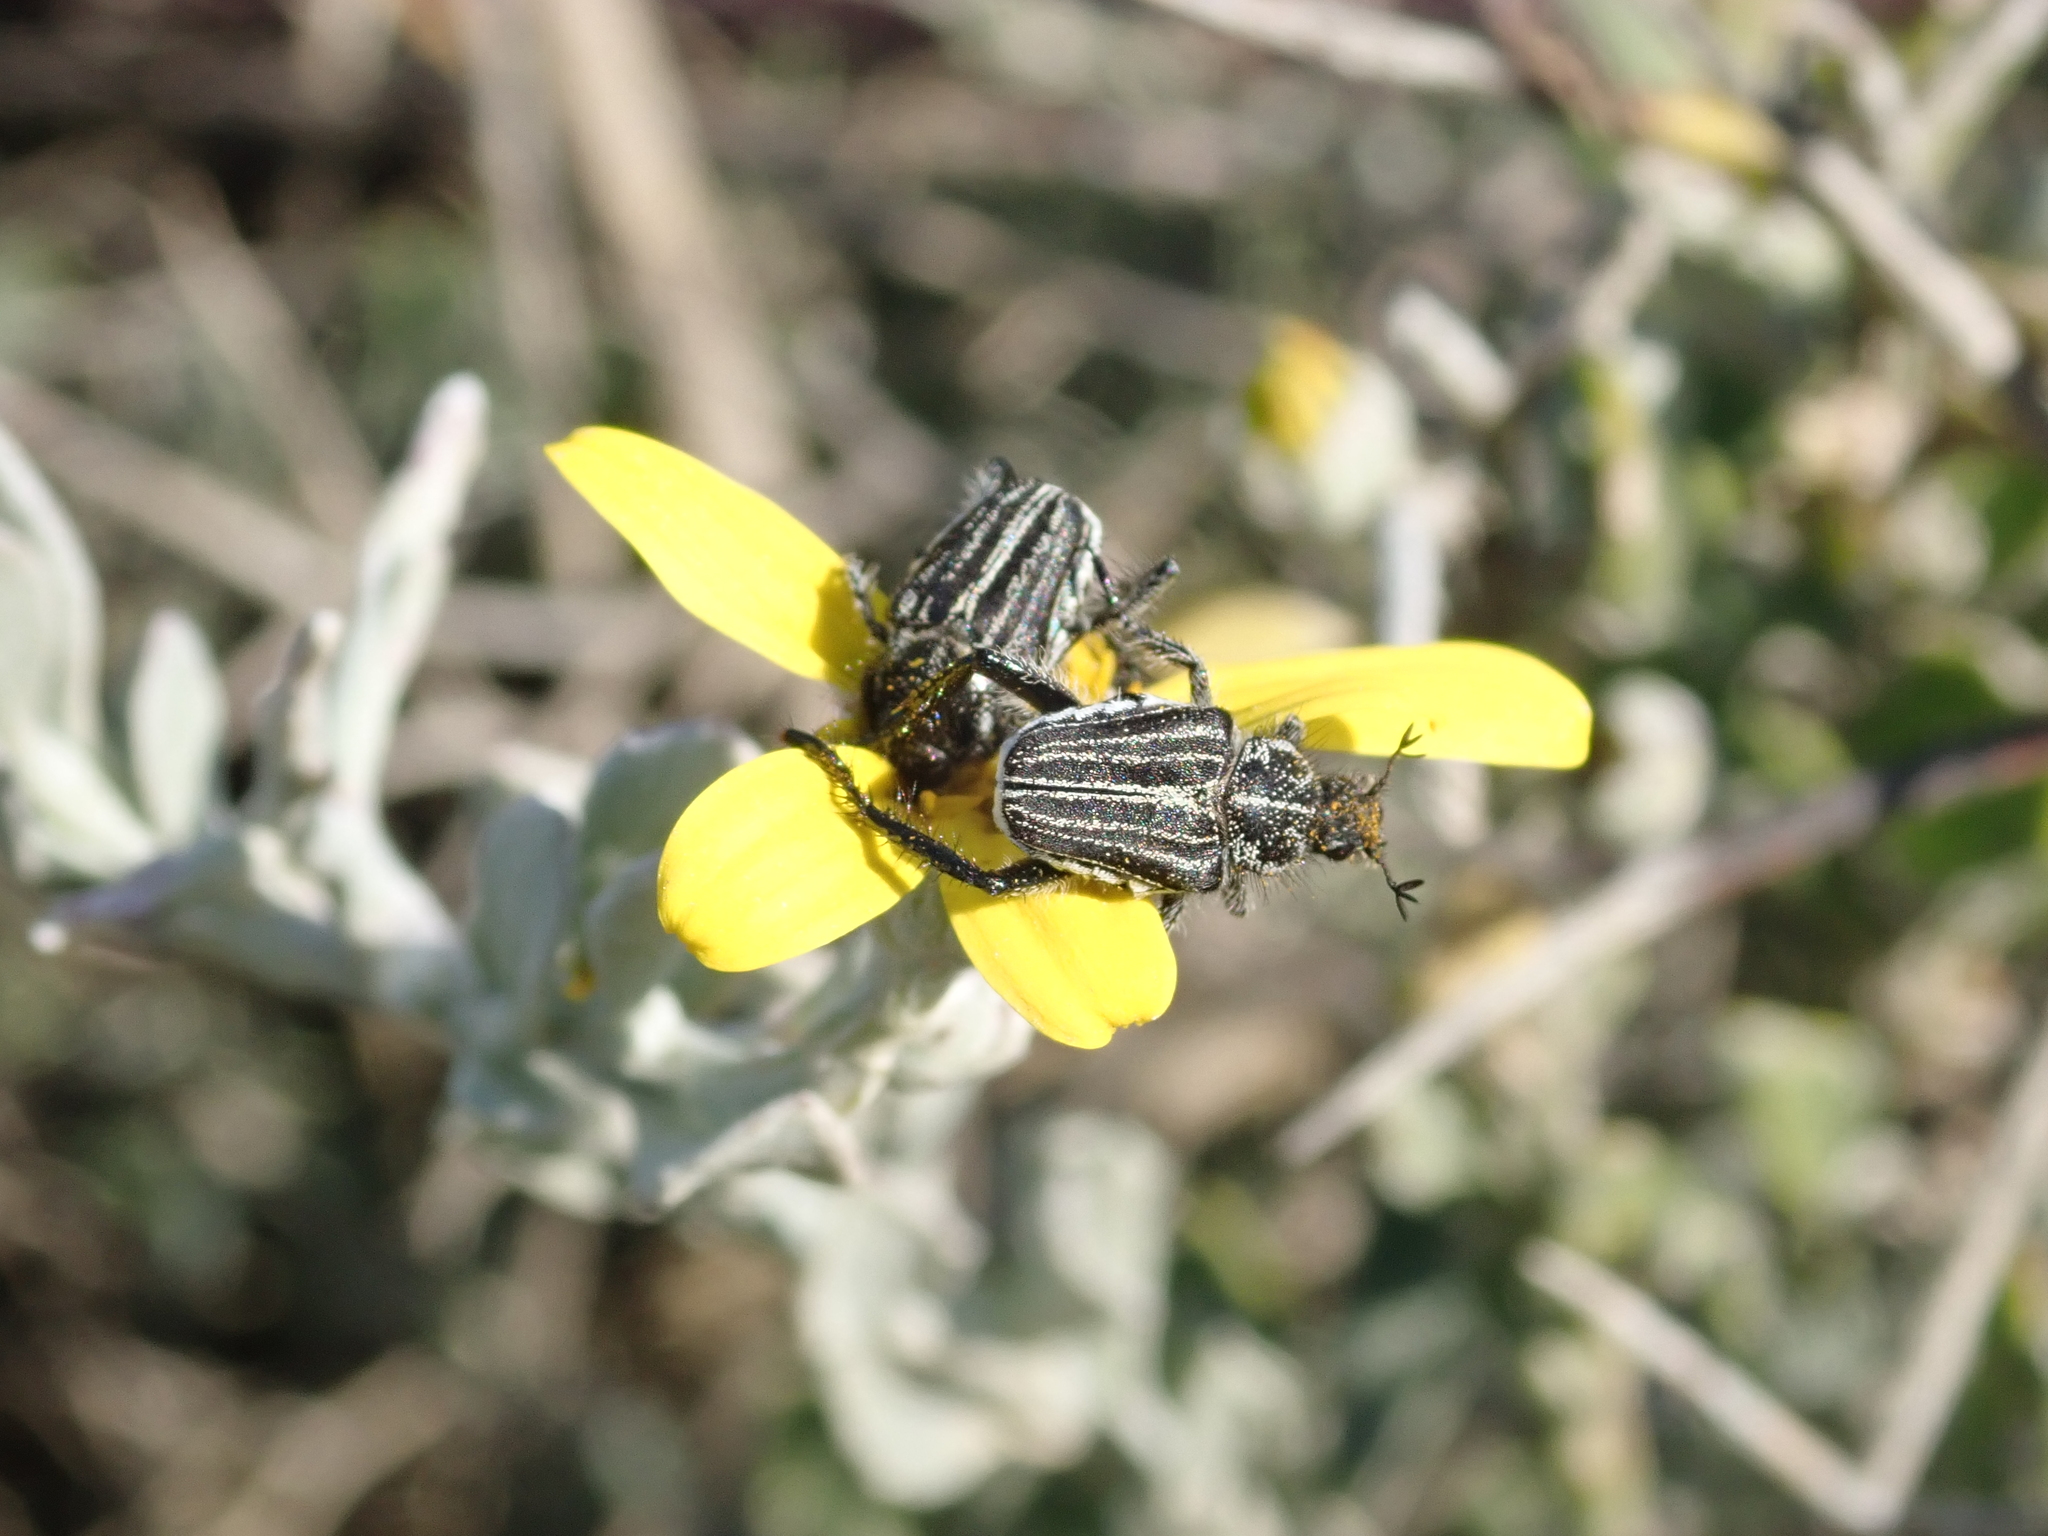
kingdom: Plantae
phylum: Tracheophyta
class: Magnoliopsida
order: Asterales
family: Asteraceae
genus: Osteospermum
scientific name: Osteospermum incanum
